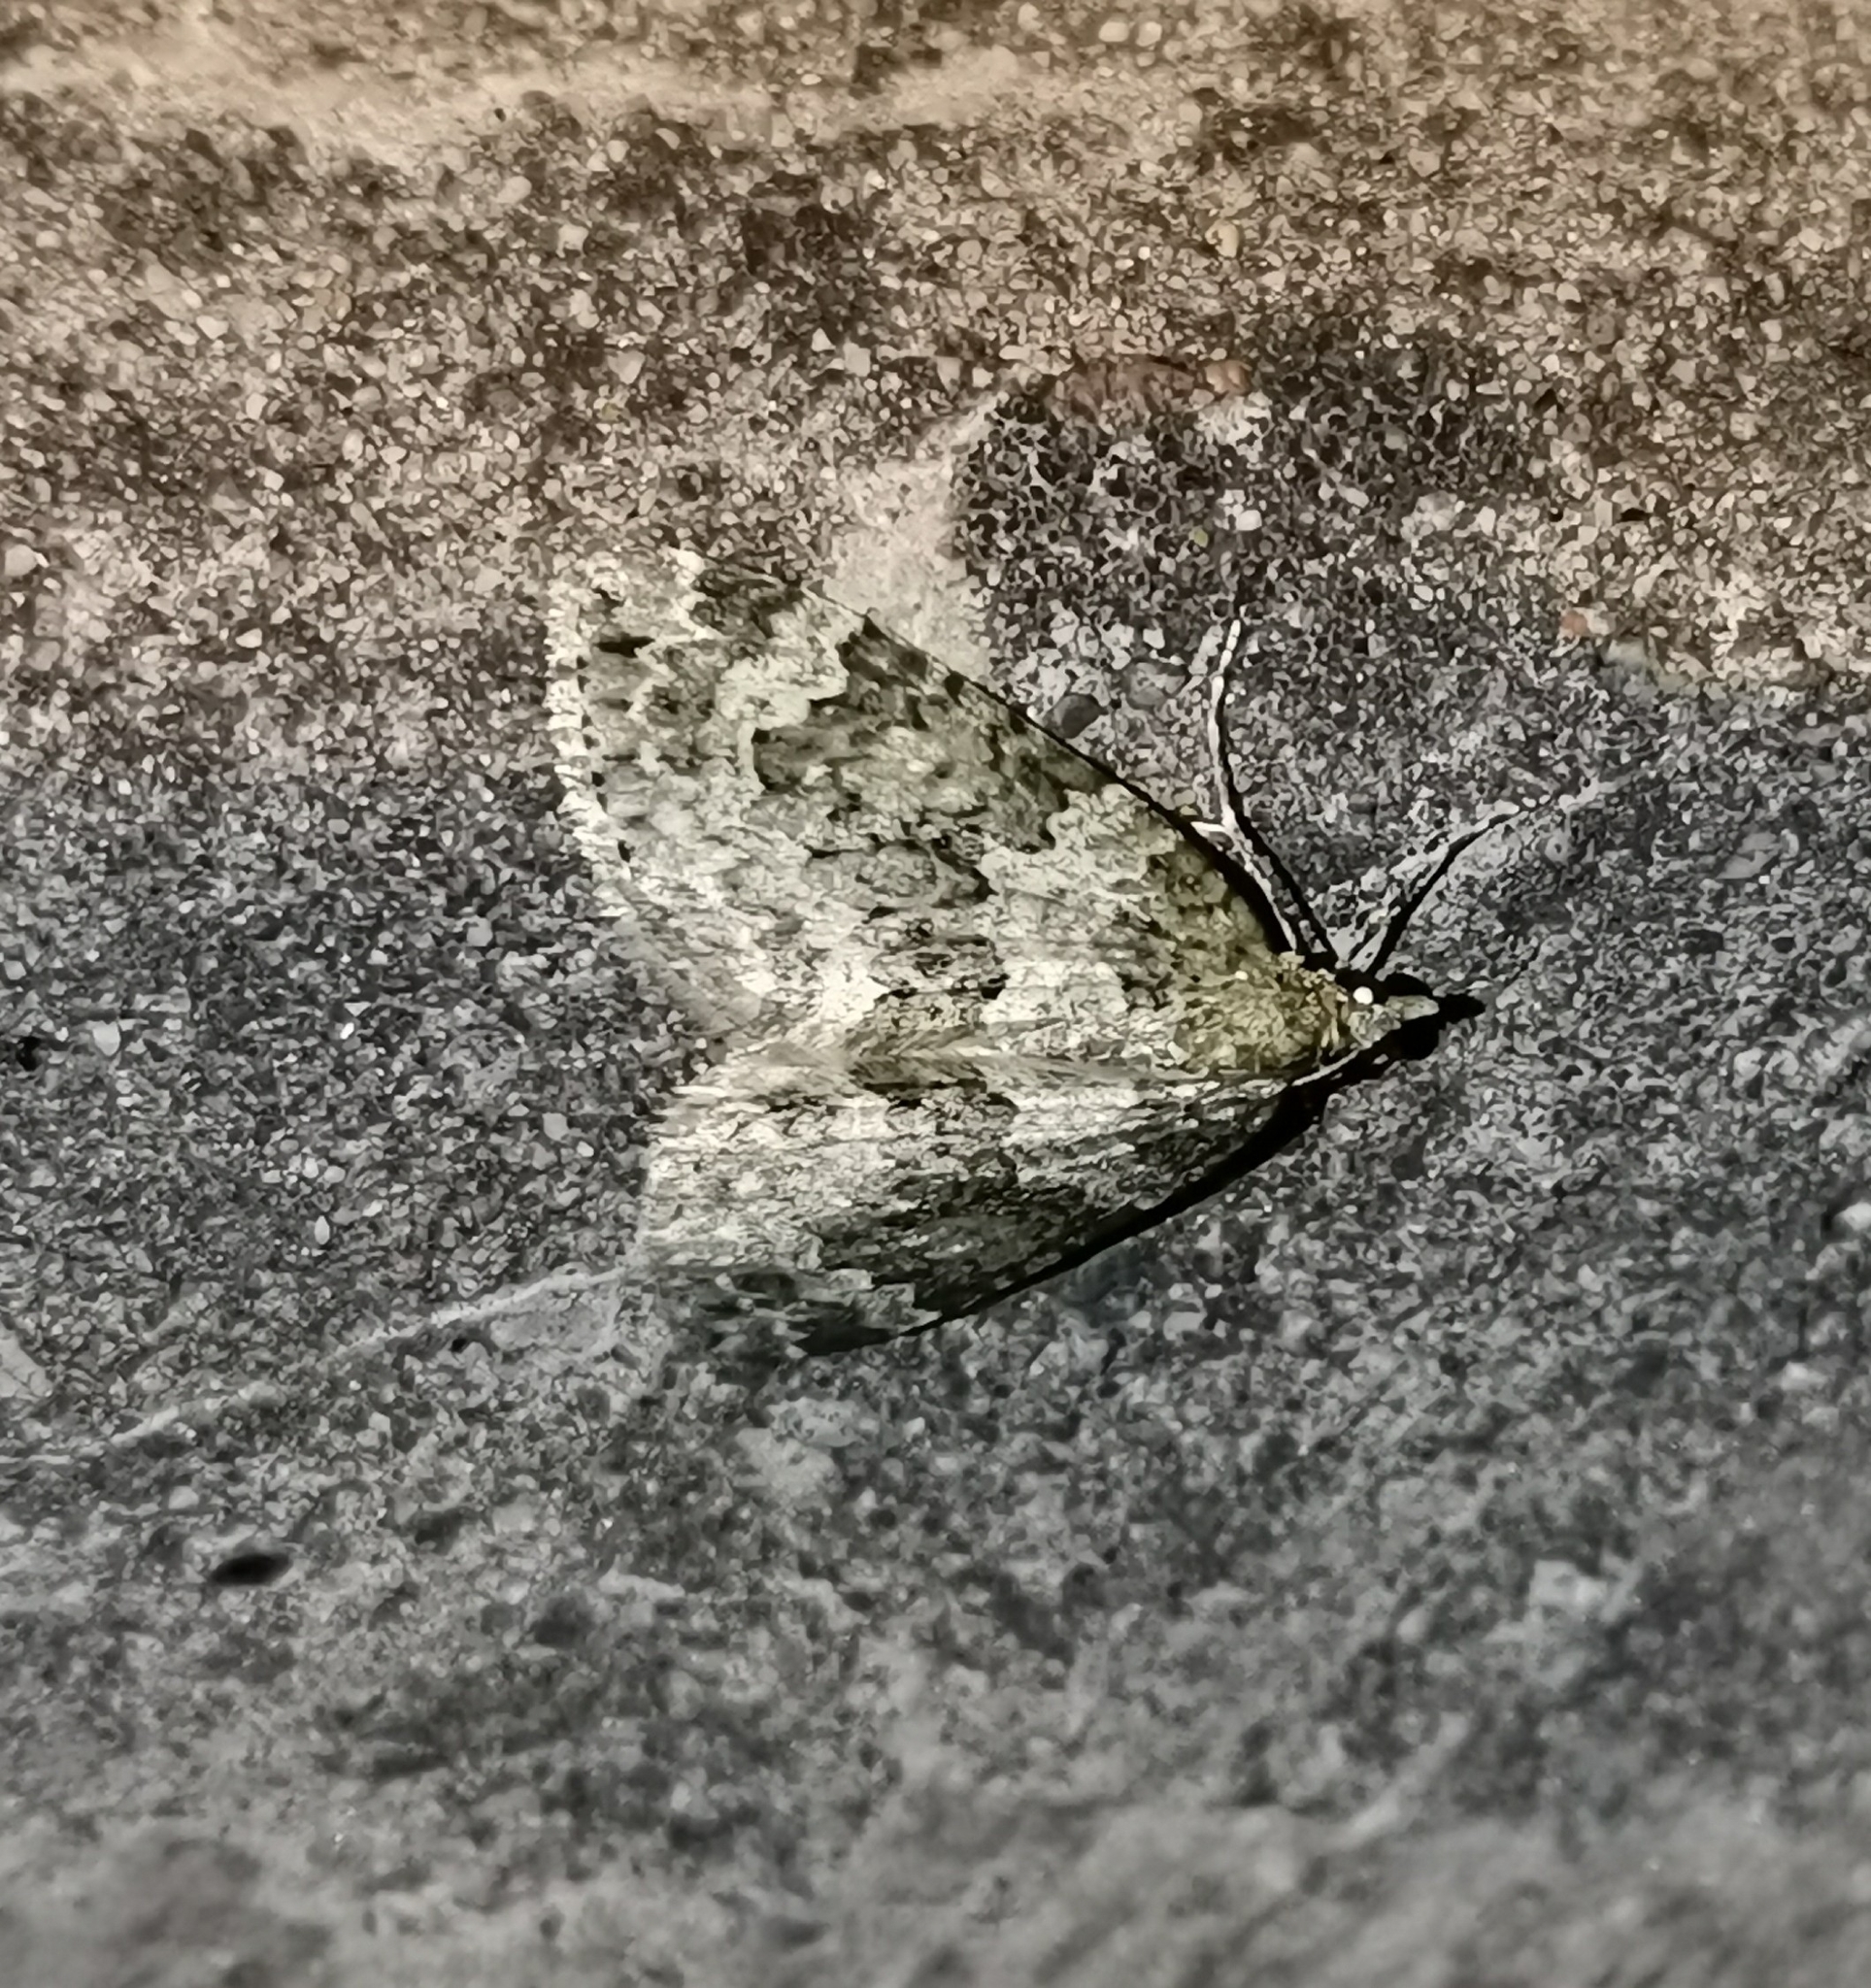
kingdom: Animalia
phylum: Arthropoda
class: Insecta
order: Lepidoptera
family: Geometridae
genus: Chloroclysta
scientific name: Chloroclysta miata
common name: Autumn green carpet
